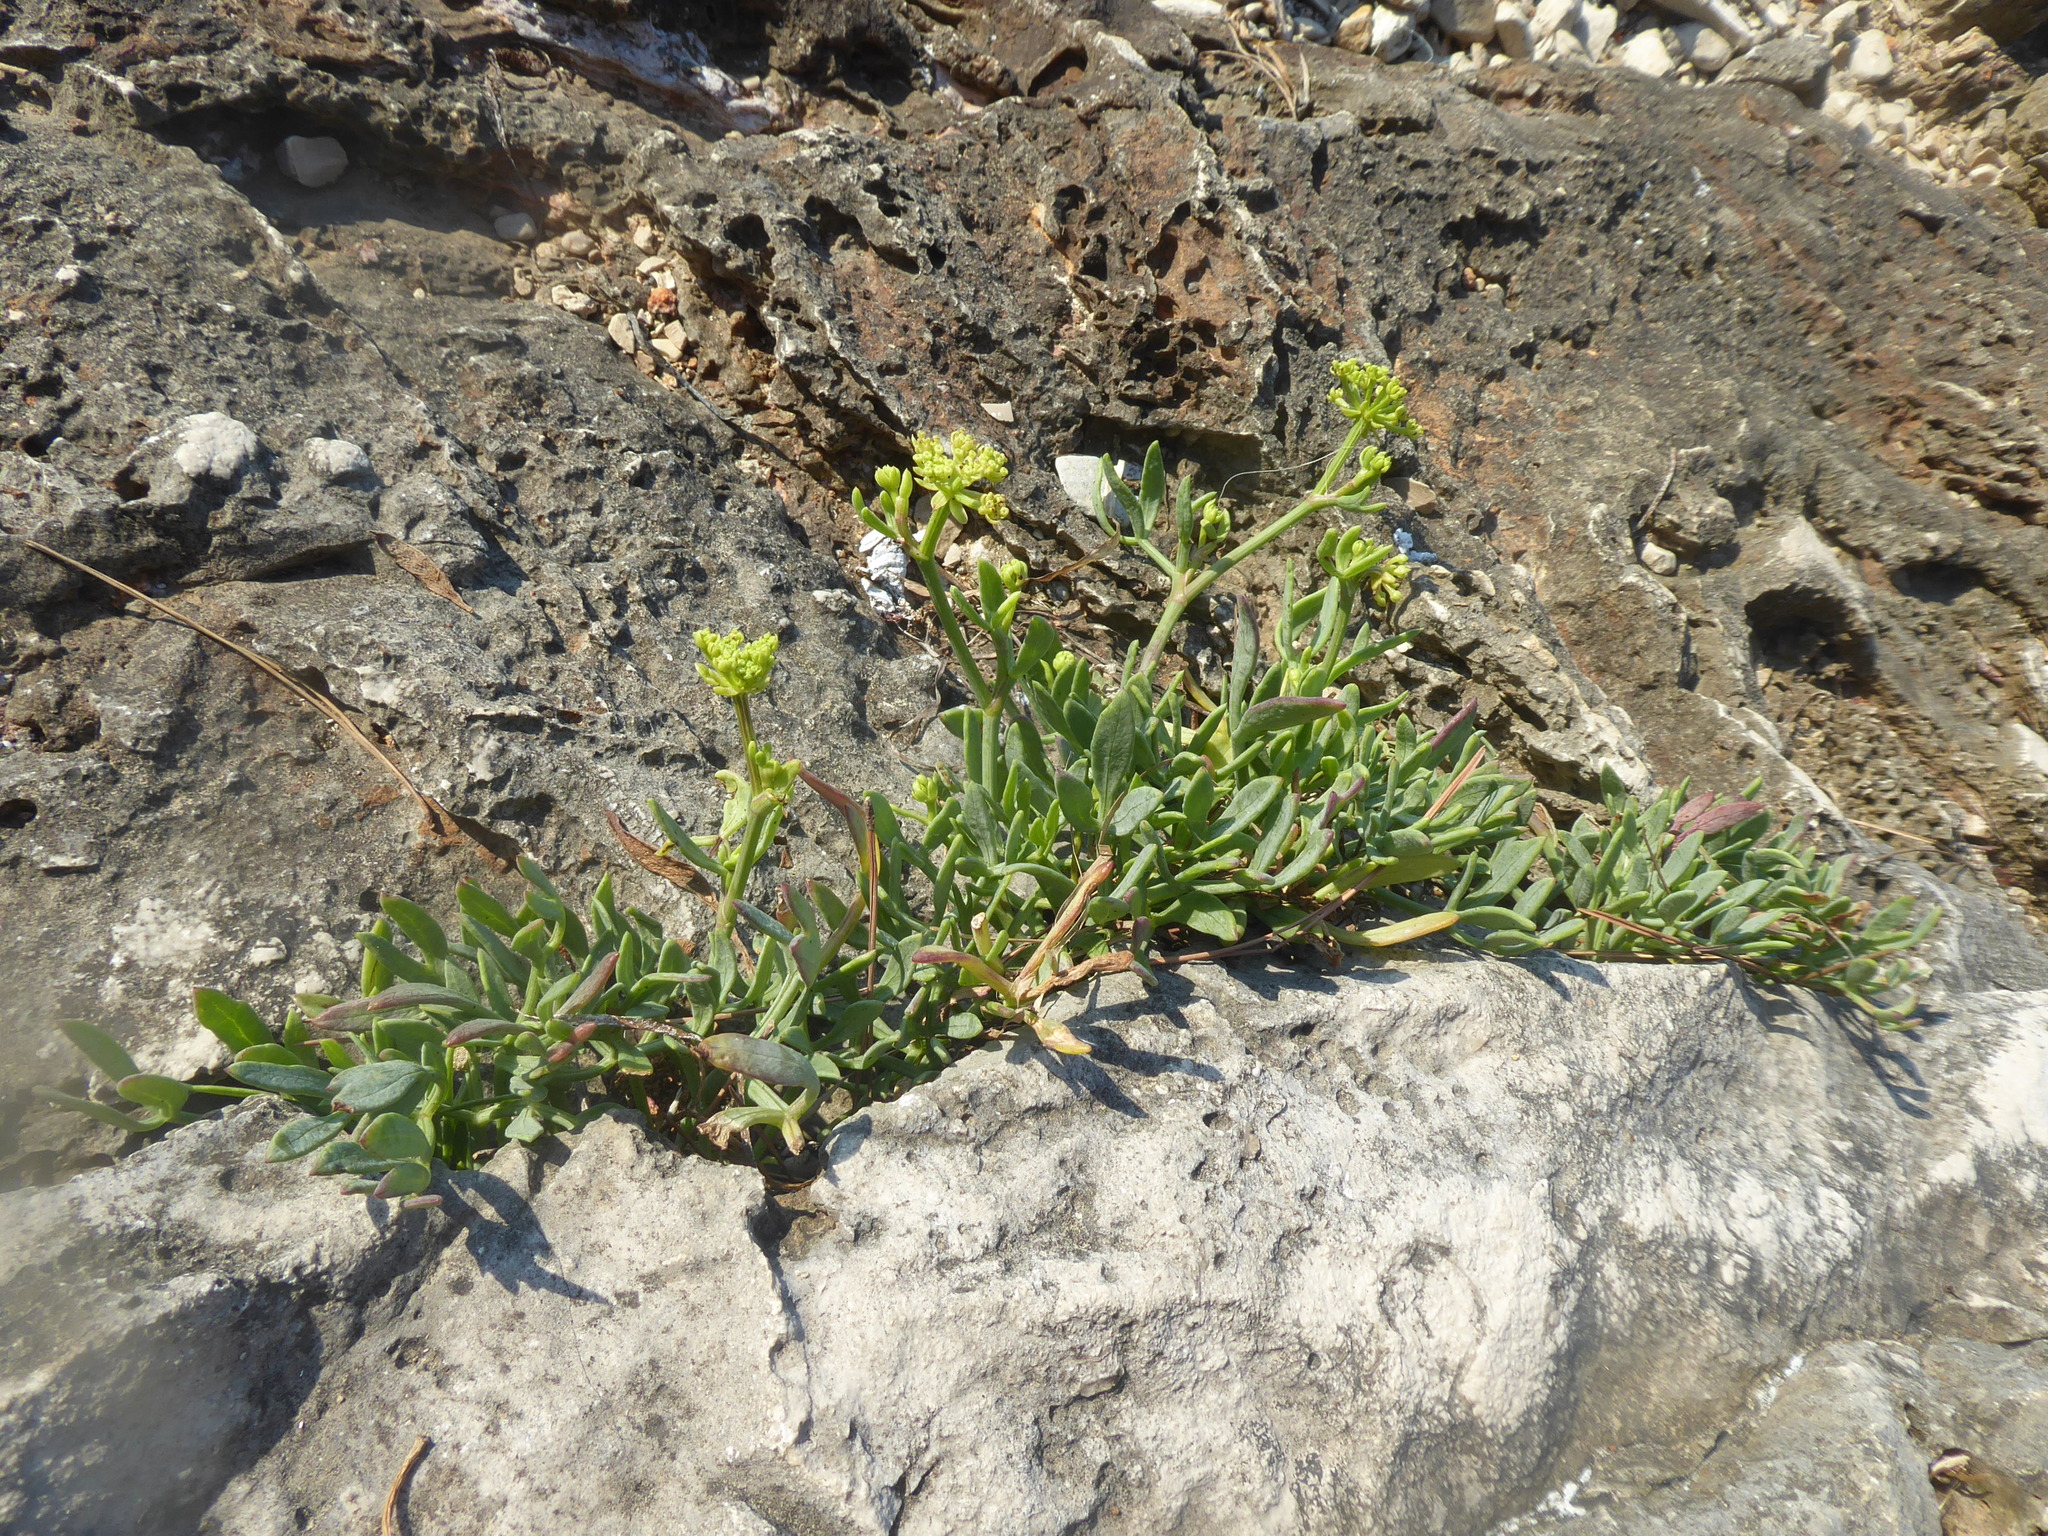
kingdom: Plantae
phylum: Tracheophyta
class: Magnoliopsida
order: Apiales
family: Apiaceae
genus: Crithmum
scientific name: Crithmum maritimum
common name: Rock samphire
